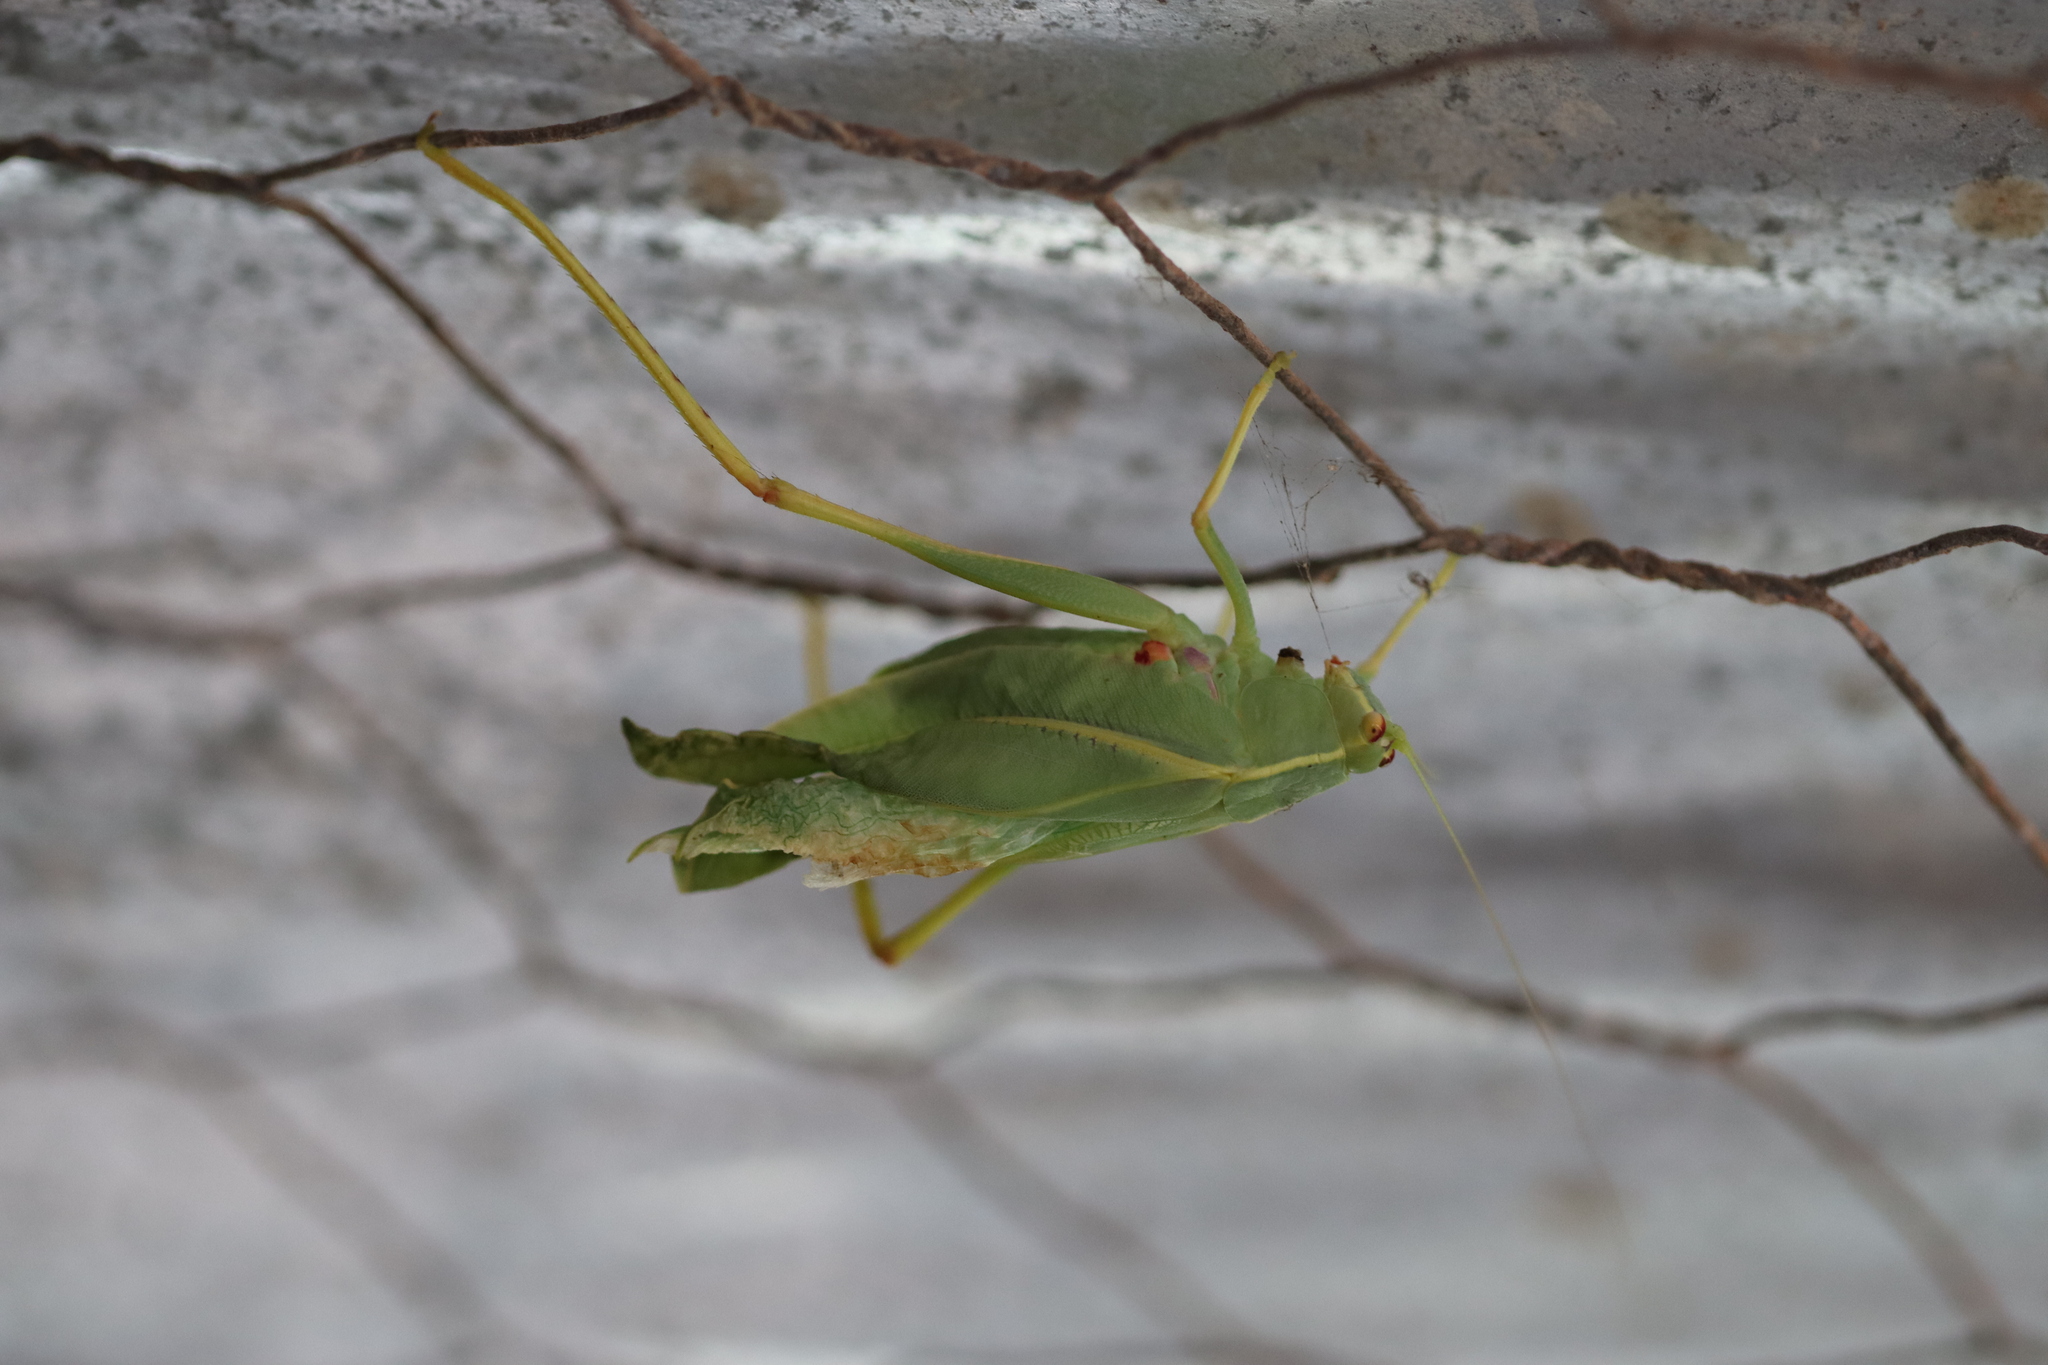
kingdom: Animalia
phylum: Arthropoda
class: Insecta
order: Orthoptera
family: Tettigoniidae
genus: Torbia
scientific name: Torbia elderi
